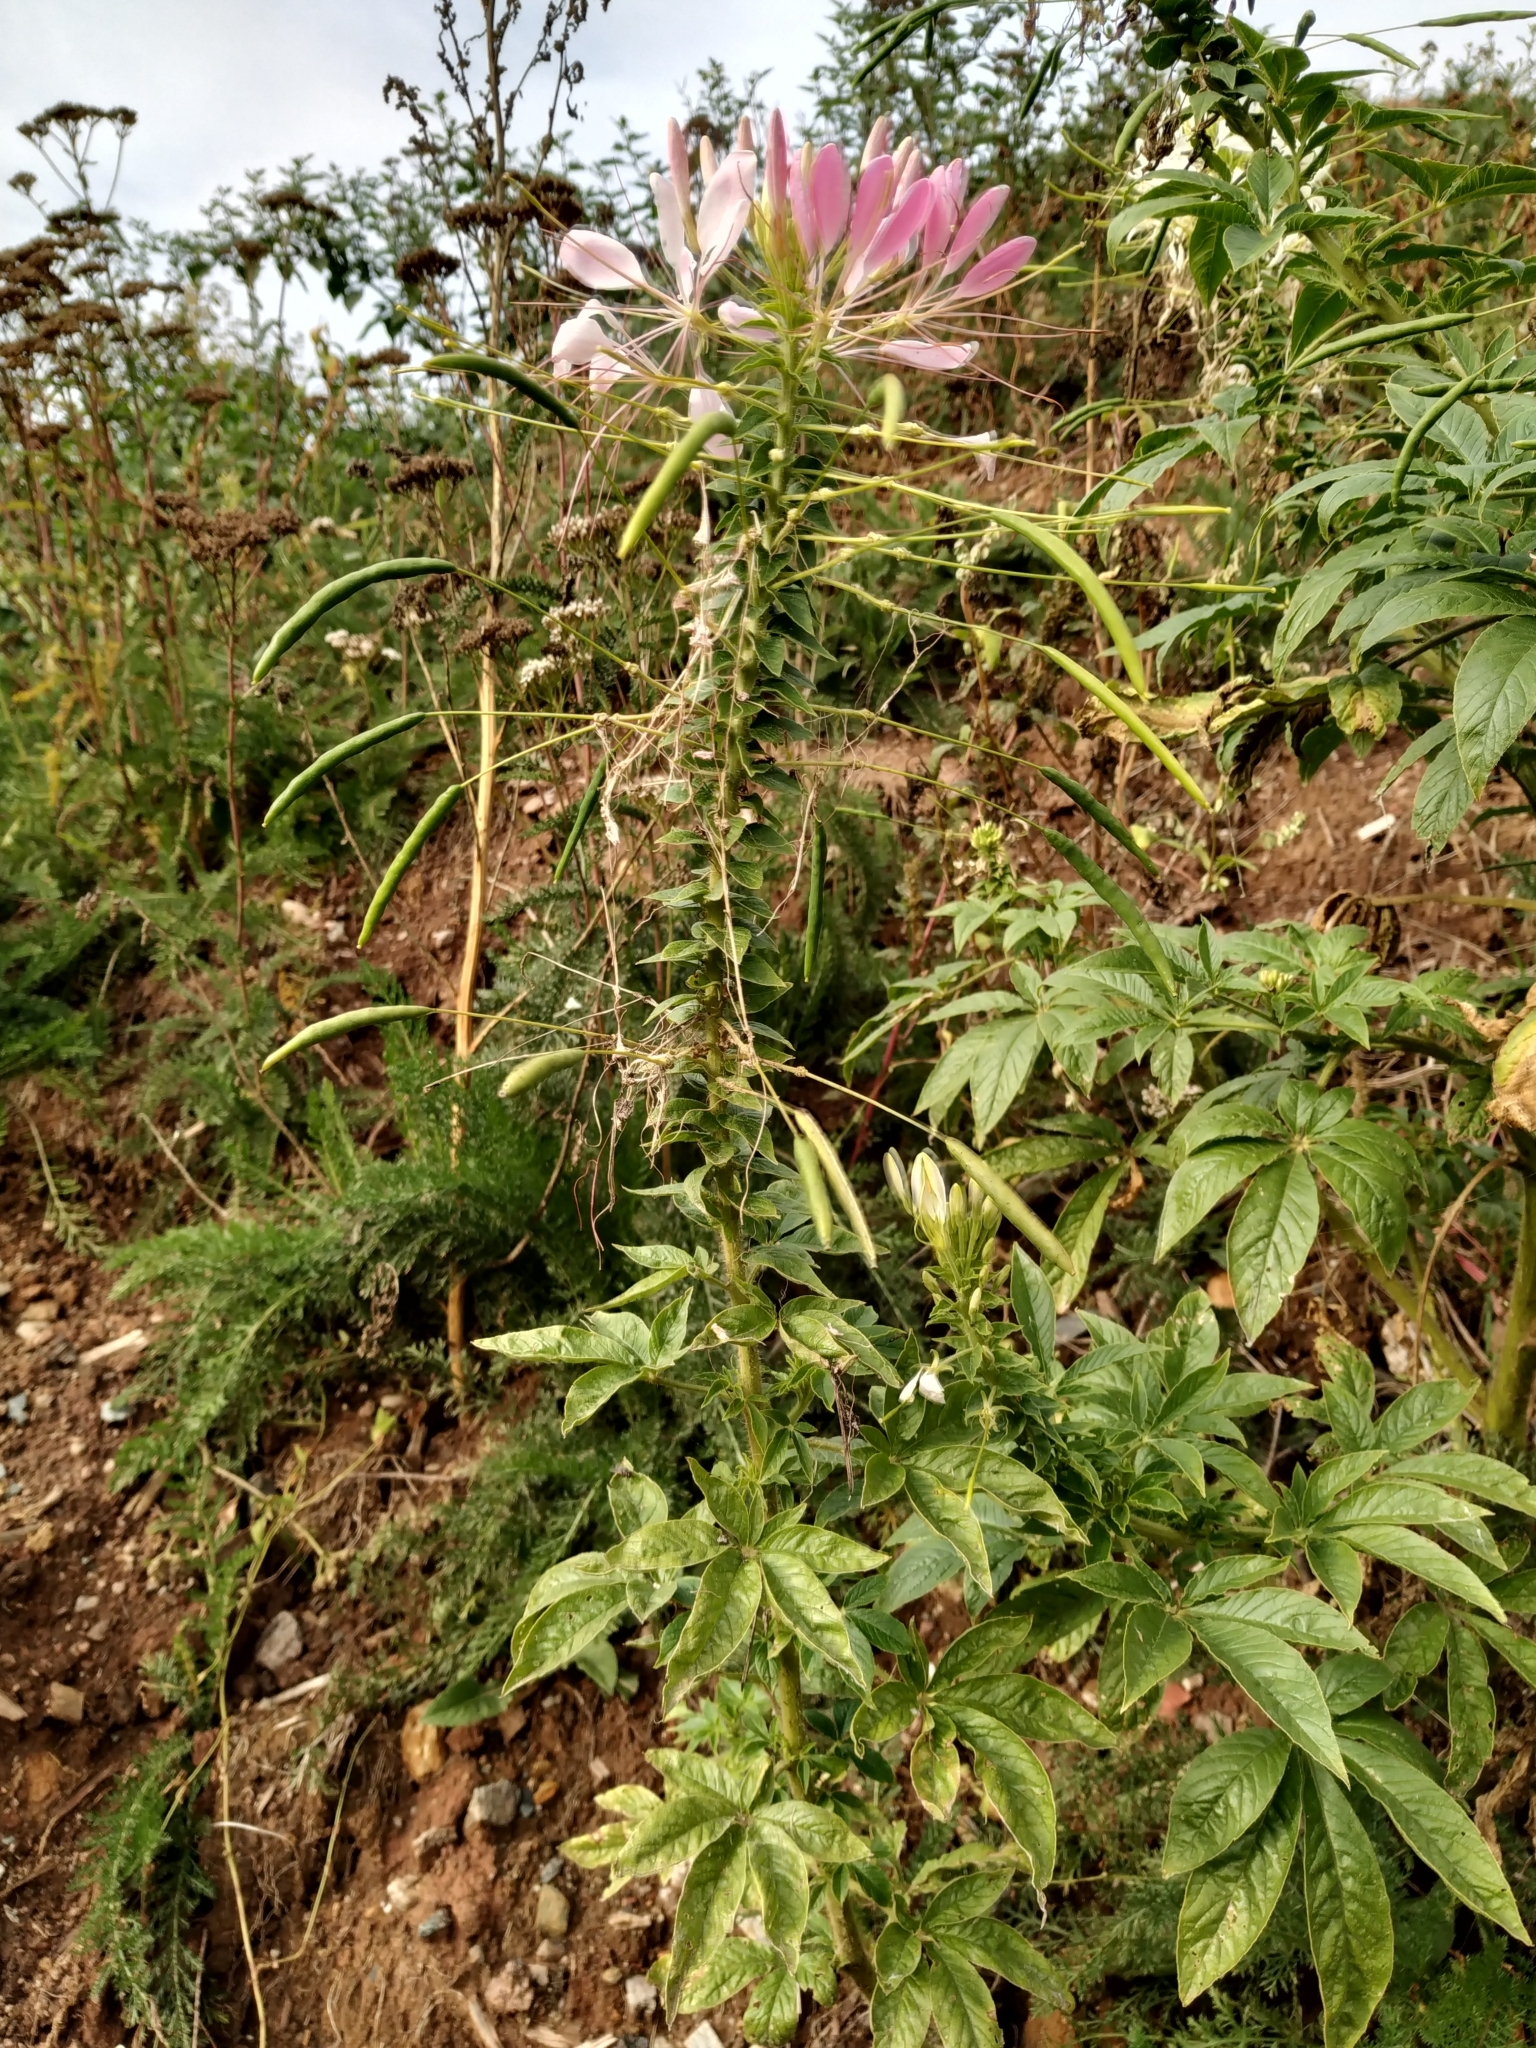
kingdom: Plantae
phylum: Tracheophyta
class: Magnoliopsida
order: Brassicales
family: Cleomaceae
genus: Tarenaya
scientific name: Tarenaya houtteana
